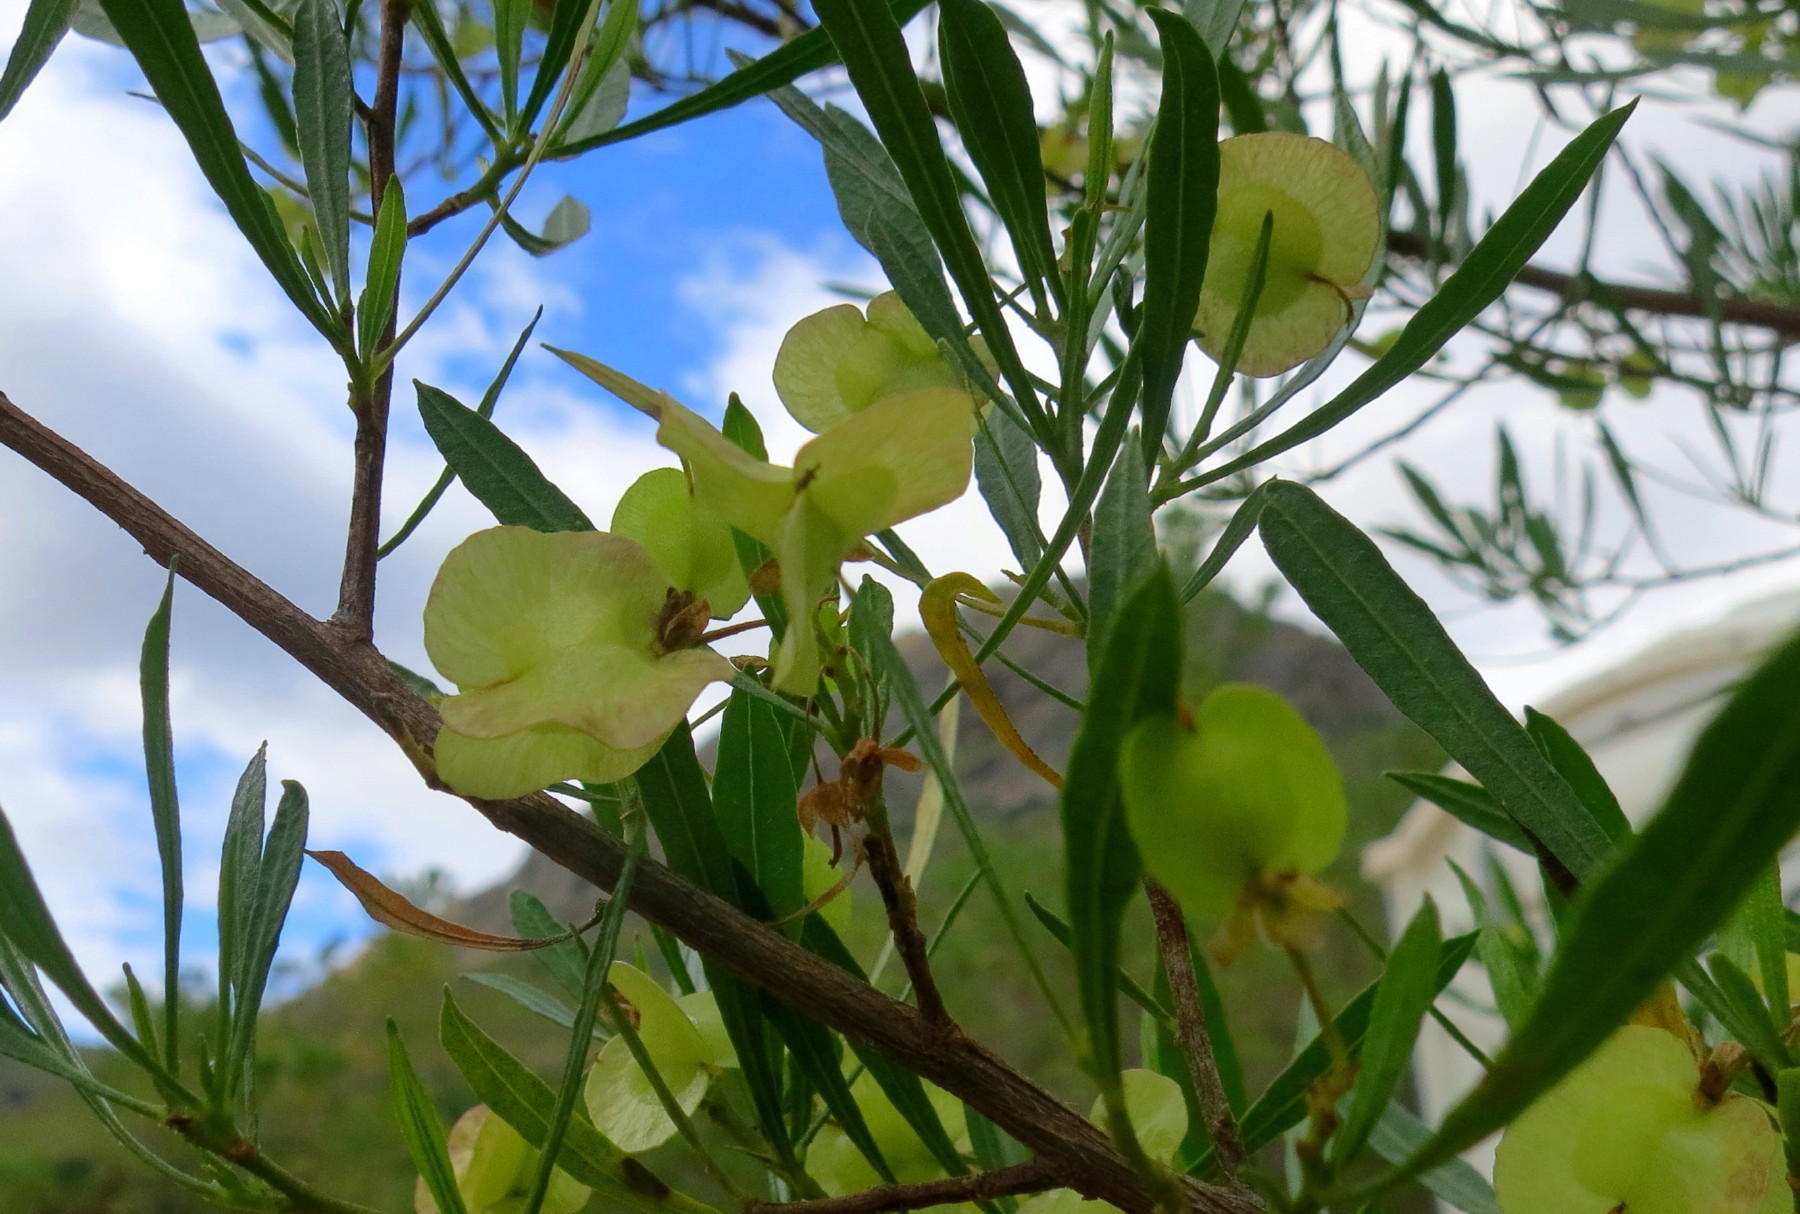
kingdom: Plantae
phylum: Tracheophyta
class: Magnoliopsida
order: Sapindales
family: Sapindaceae
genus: Dodonaea
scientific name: Dodonaea viscosa
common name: Hopbush
